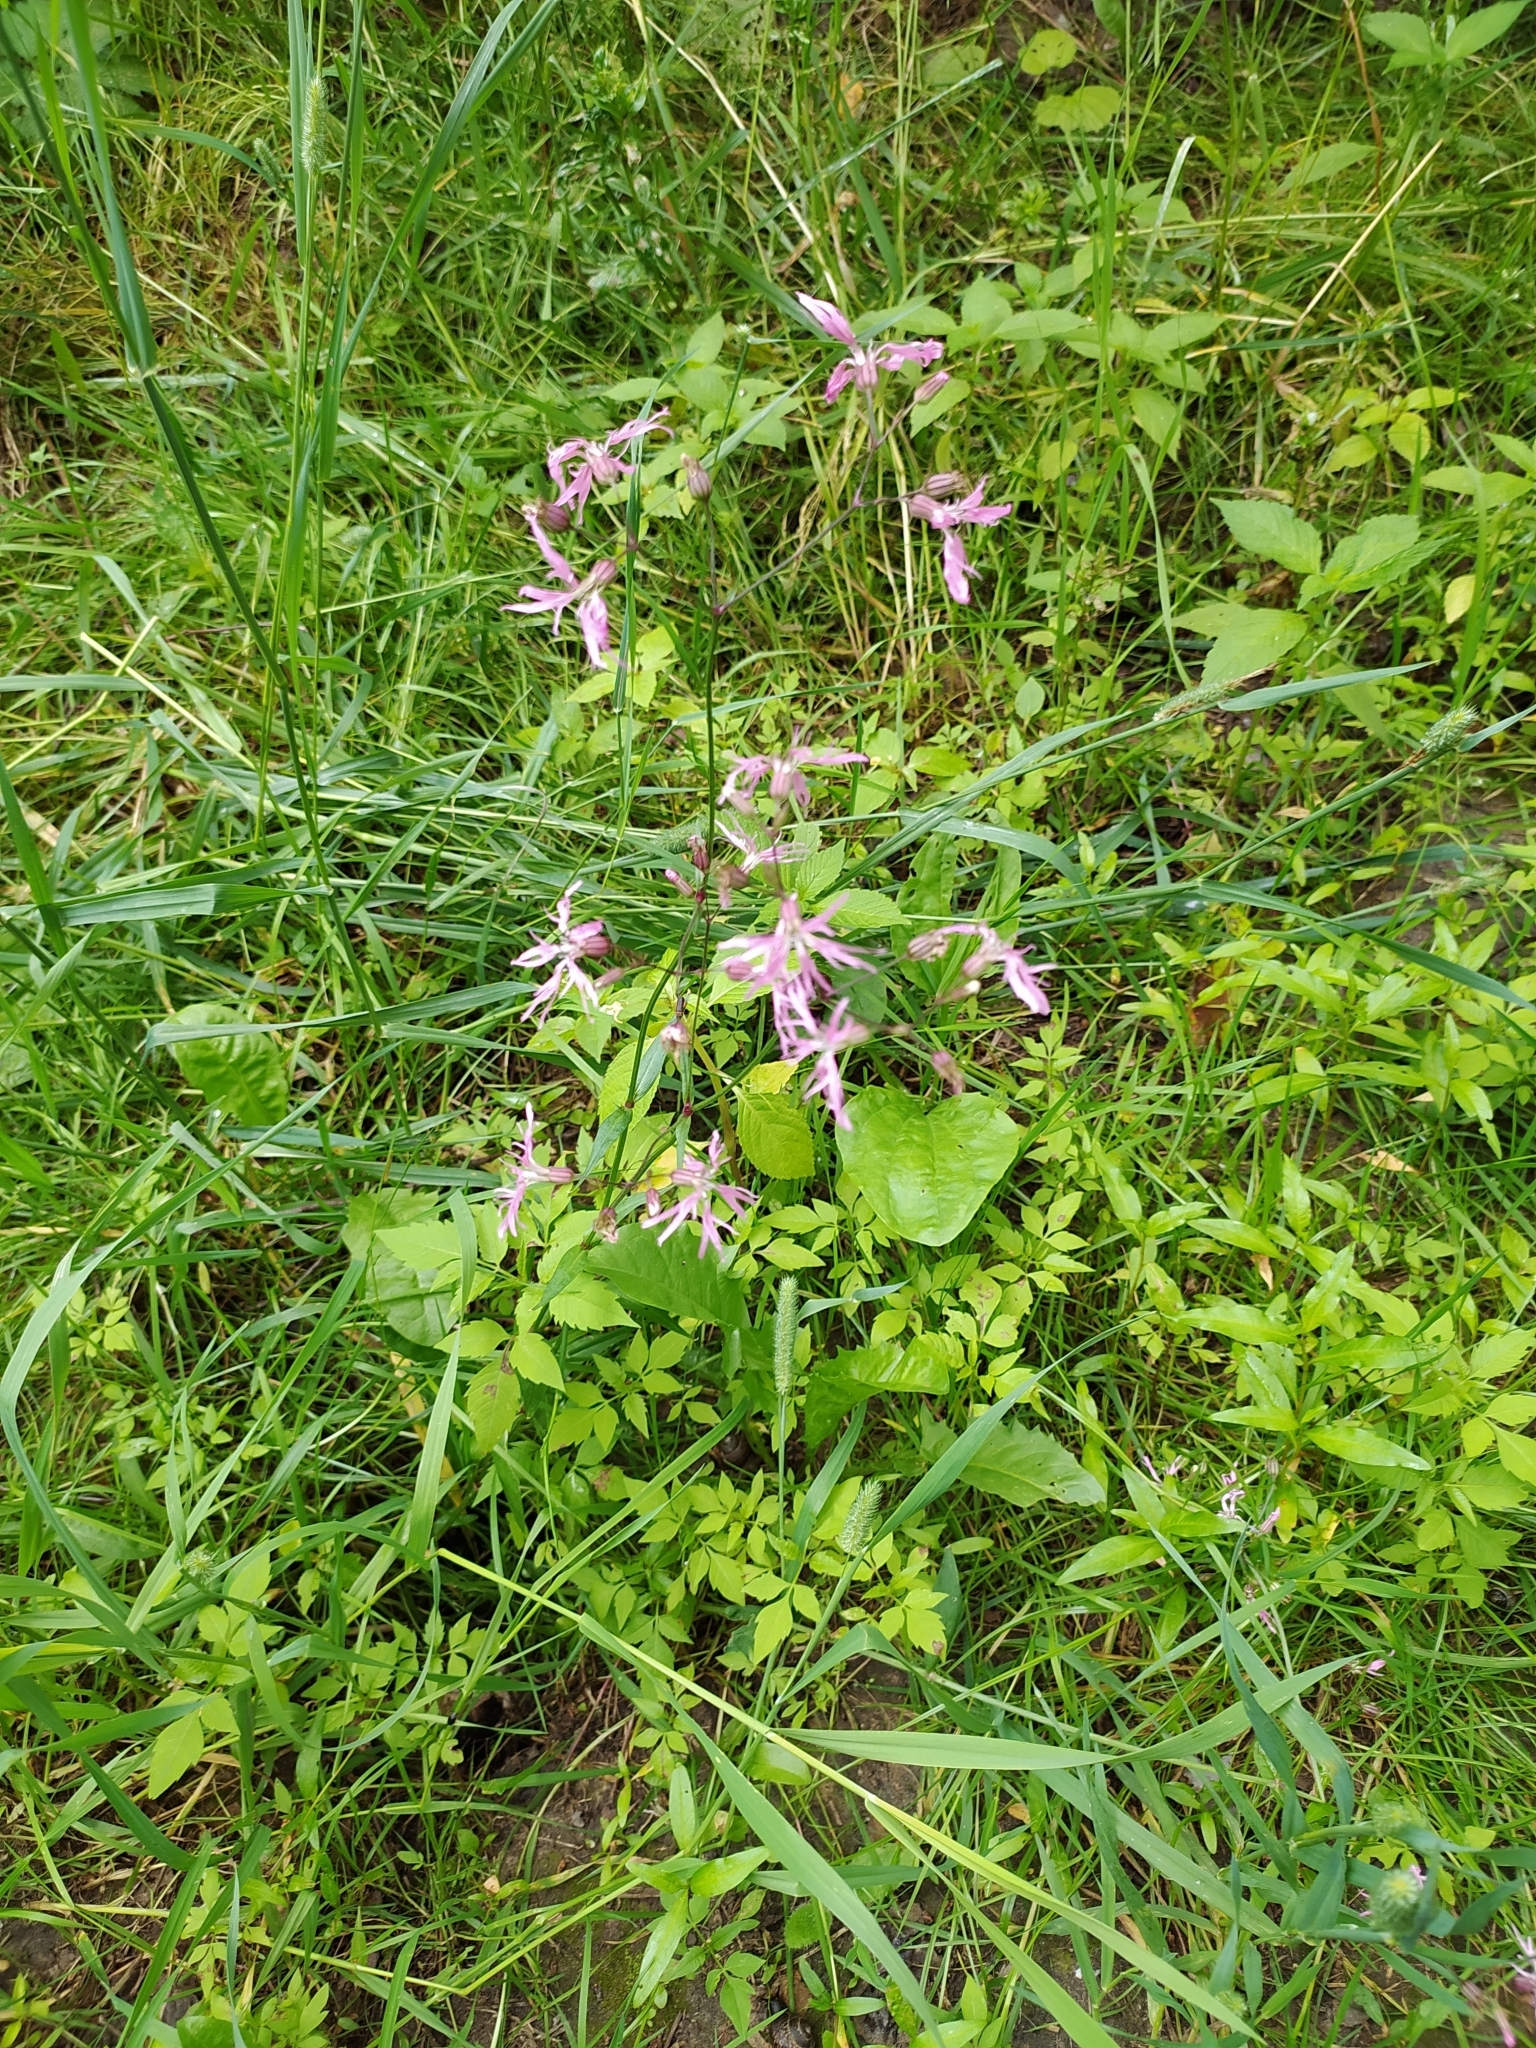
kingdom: Plantae
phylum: Tracheophyta
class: Magnoliopsida
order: Caryophyllales
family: Caryophyllaceae
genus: Silene
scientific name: Silene flos-cuculi
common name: Ragged-robin
